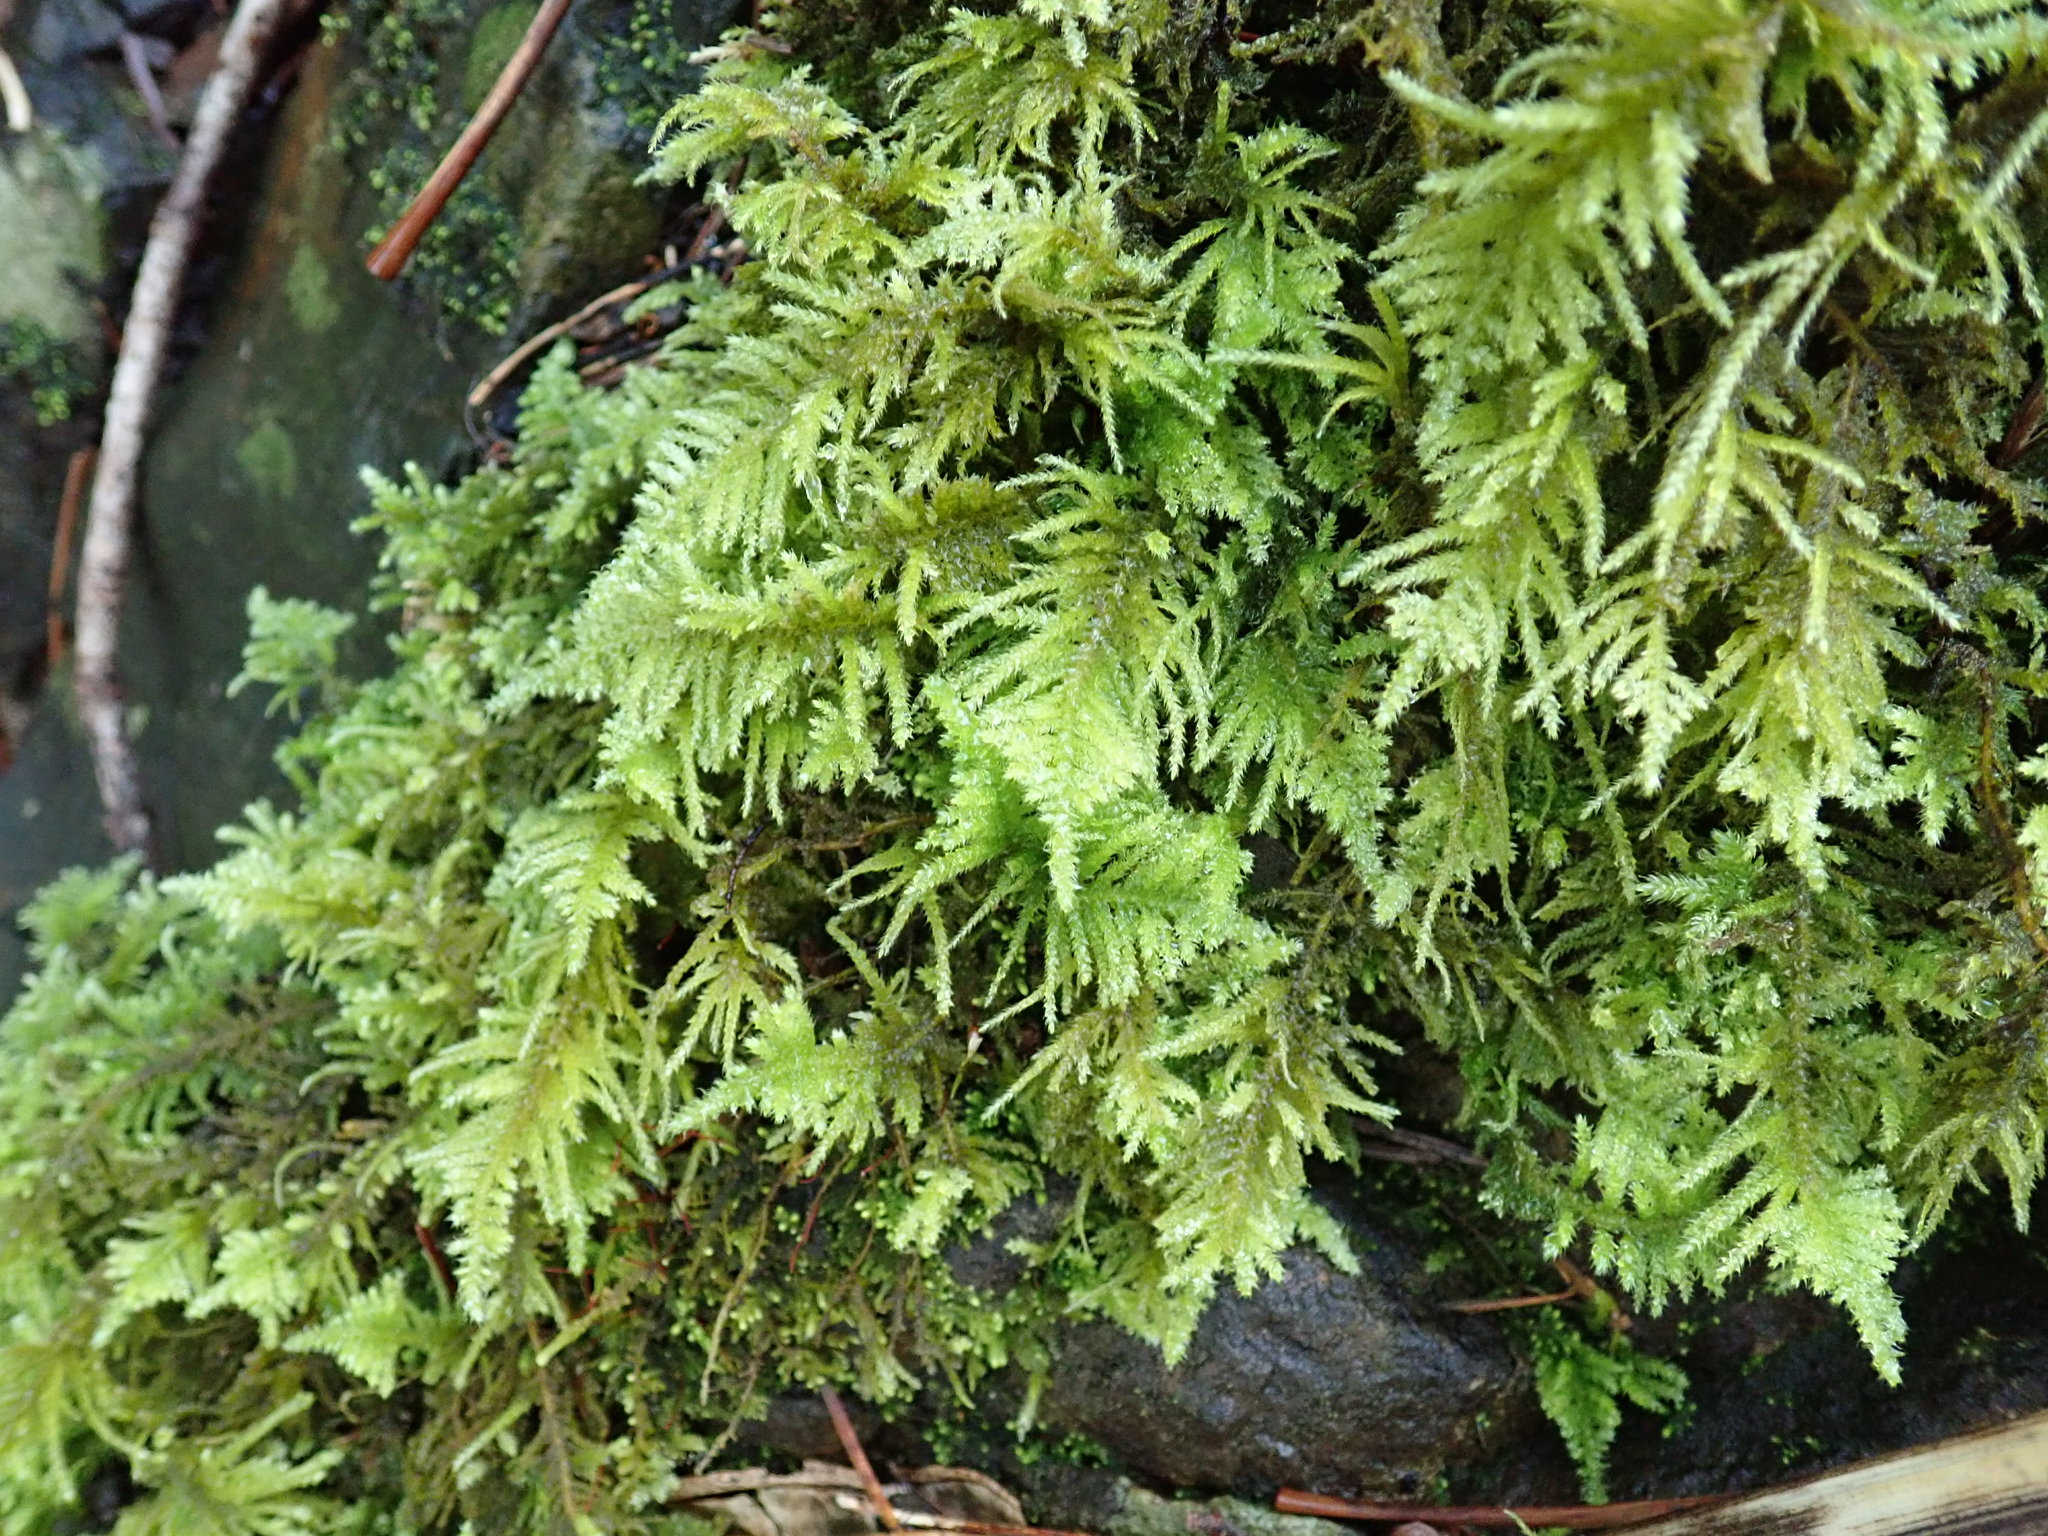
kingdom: Plantae
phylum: Bryophyta
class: Bryopsida
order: Hypnales
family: Brachytheciaceae
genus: Kindbergia
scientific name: Kindbergia oregana
